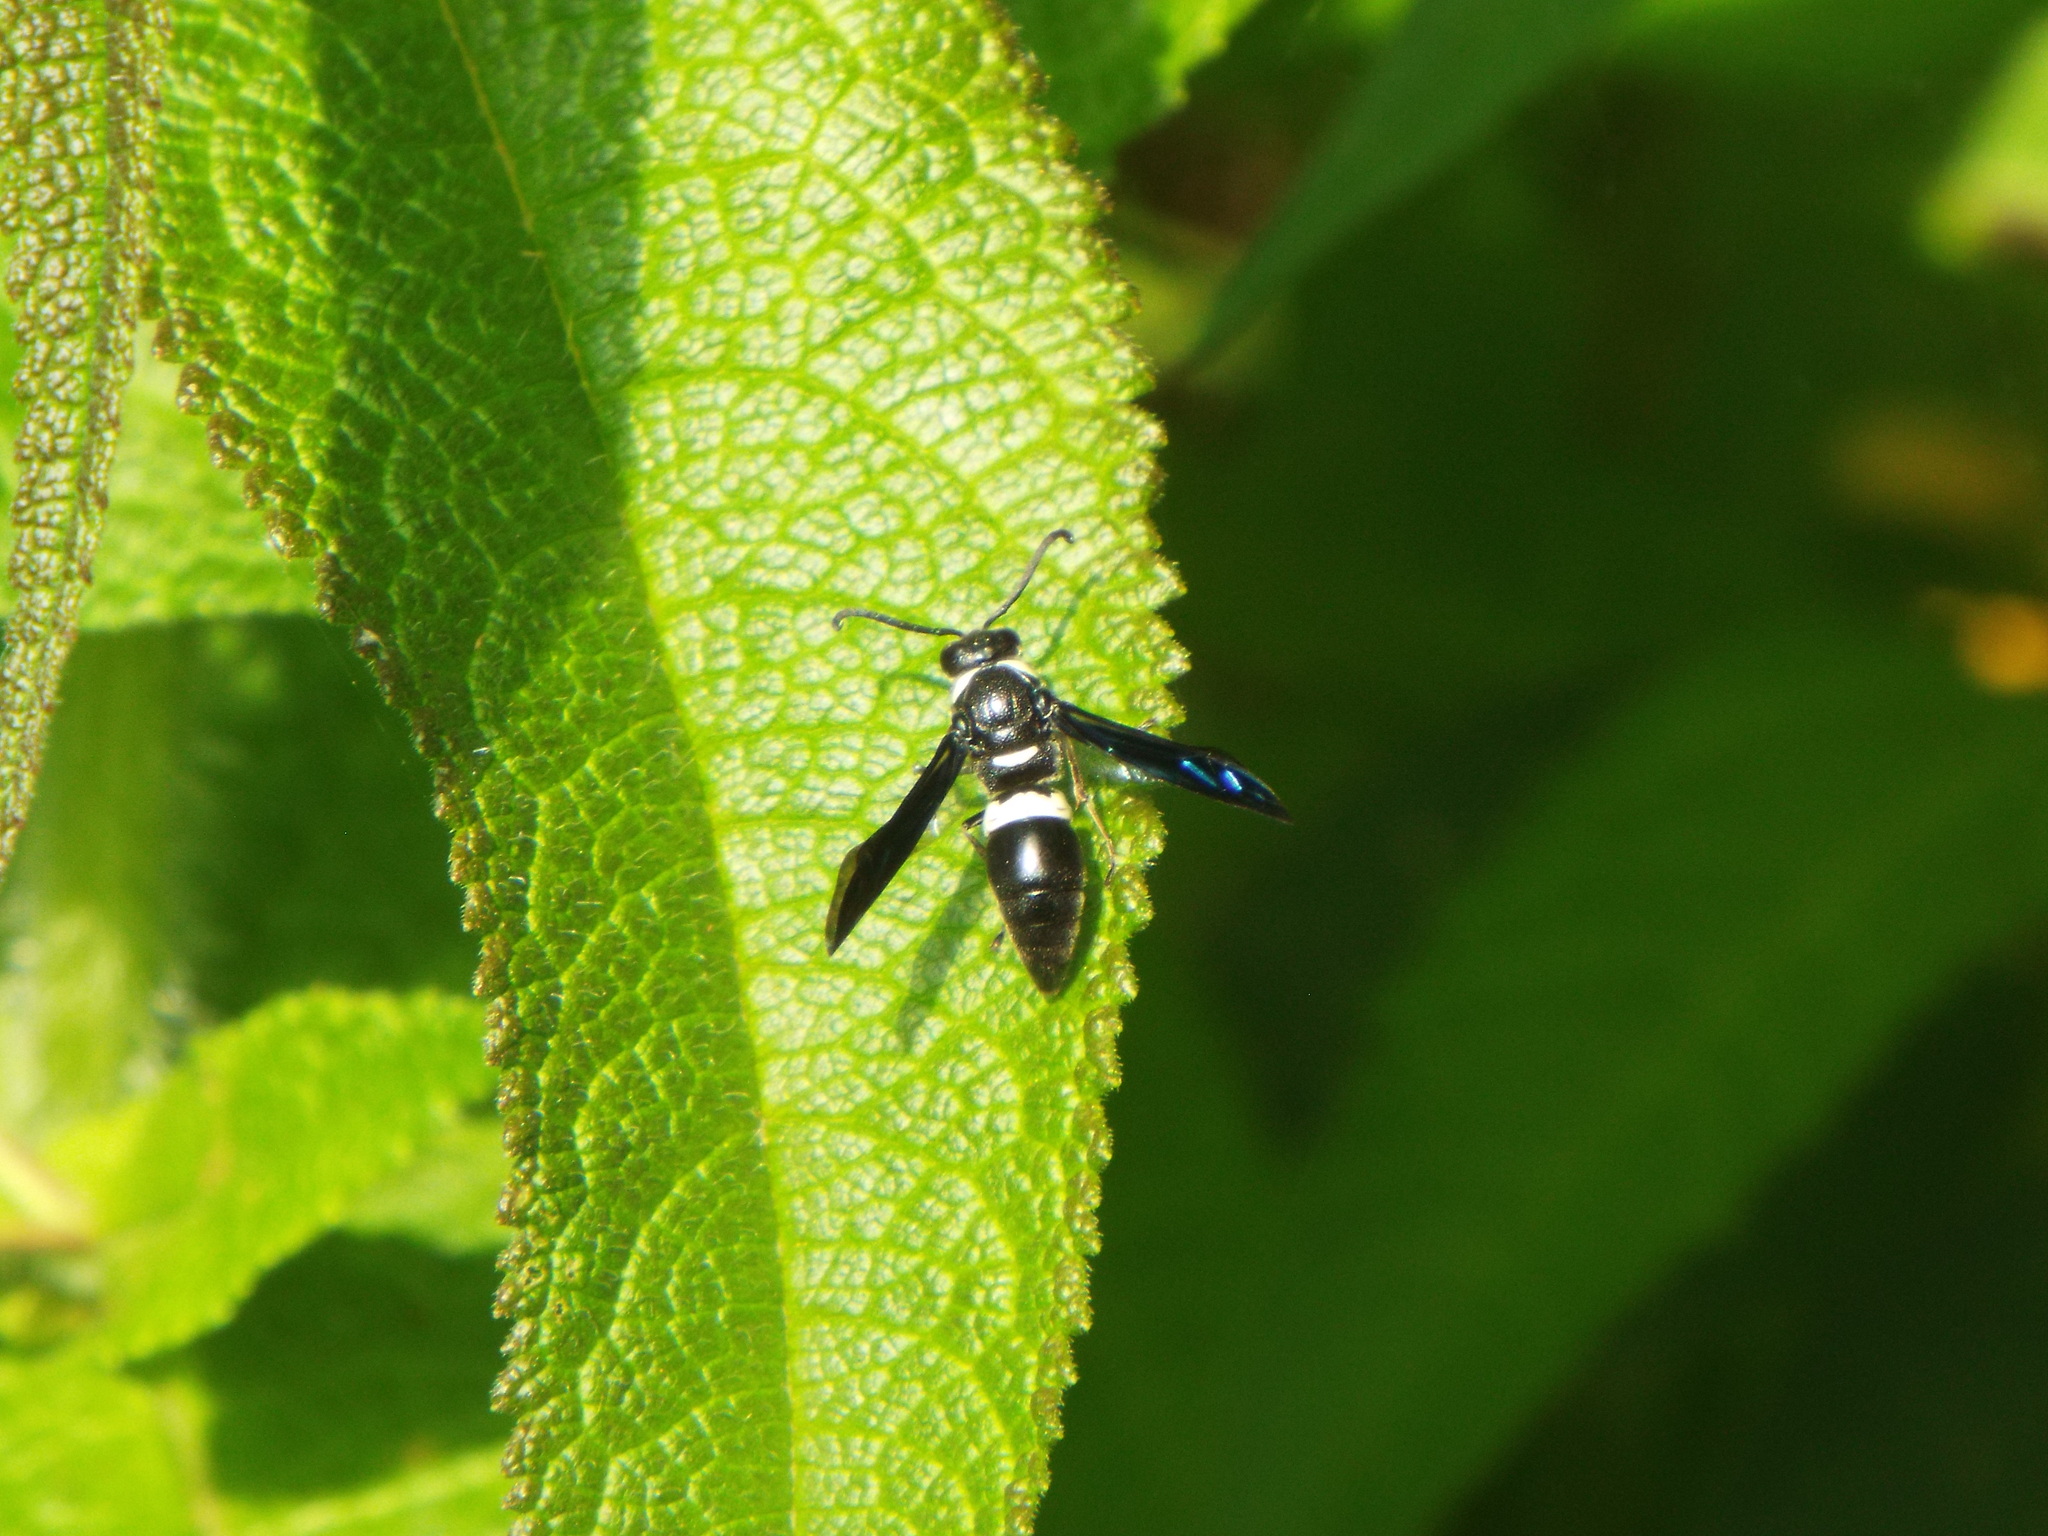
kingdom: Animalia
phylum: Arthropoda
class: Insecta
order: Hymenoptera
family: Eumenidae
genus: Monobia
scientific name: Monobia quadridens
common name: Four-toothed mason wasp
